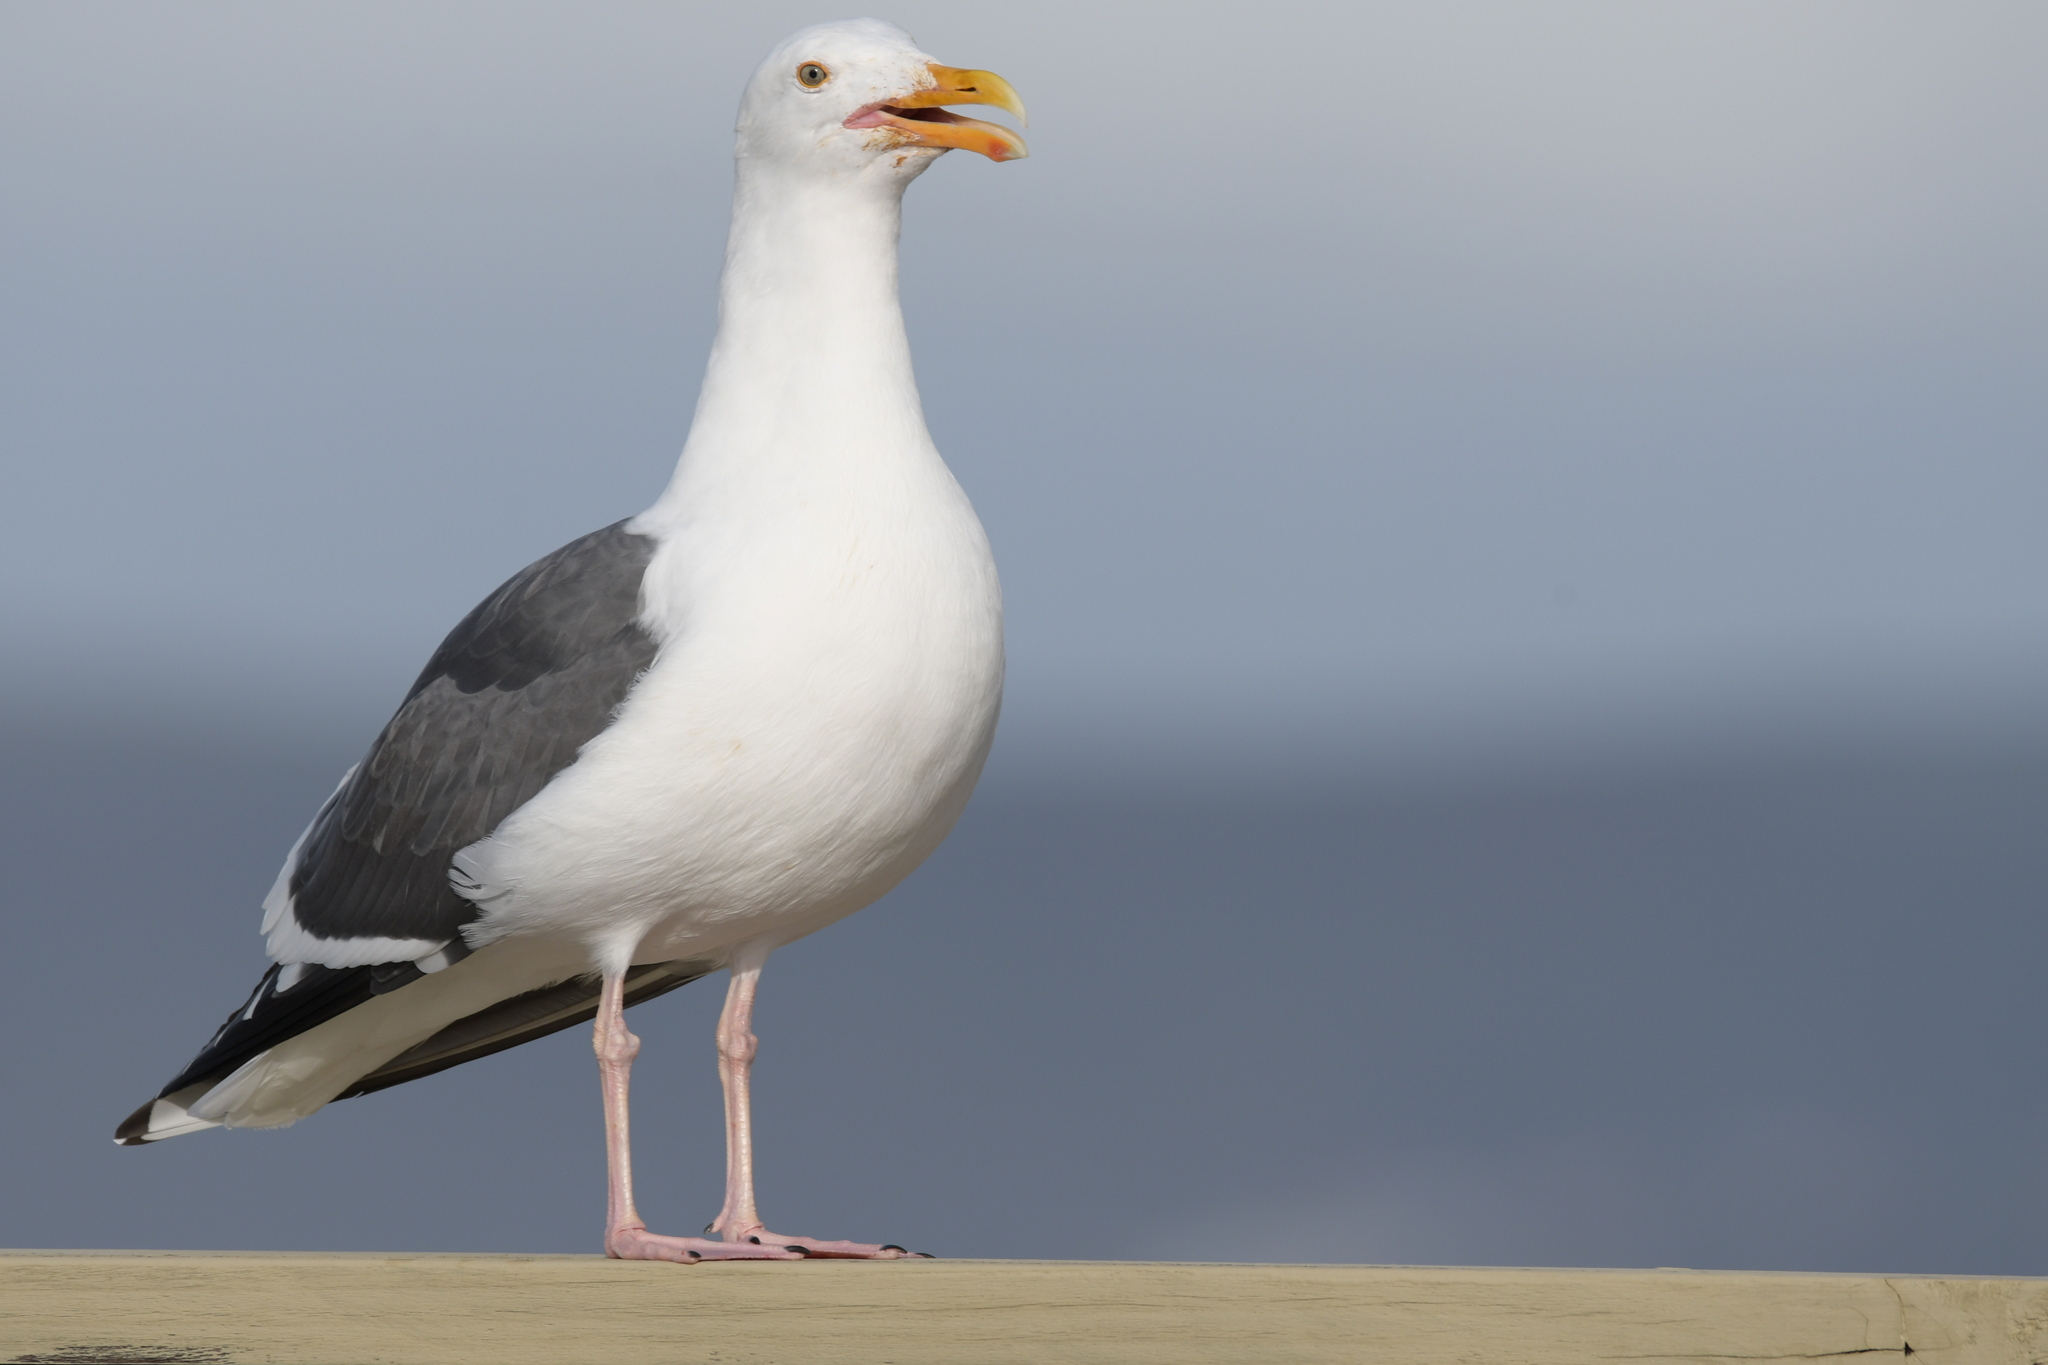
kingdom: Animalia
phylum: Chordata
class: Aves
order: Charadriiformes
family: Laridae
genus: Larus
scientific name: Larus occidentalis
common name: Western gull
